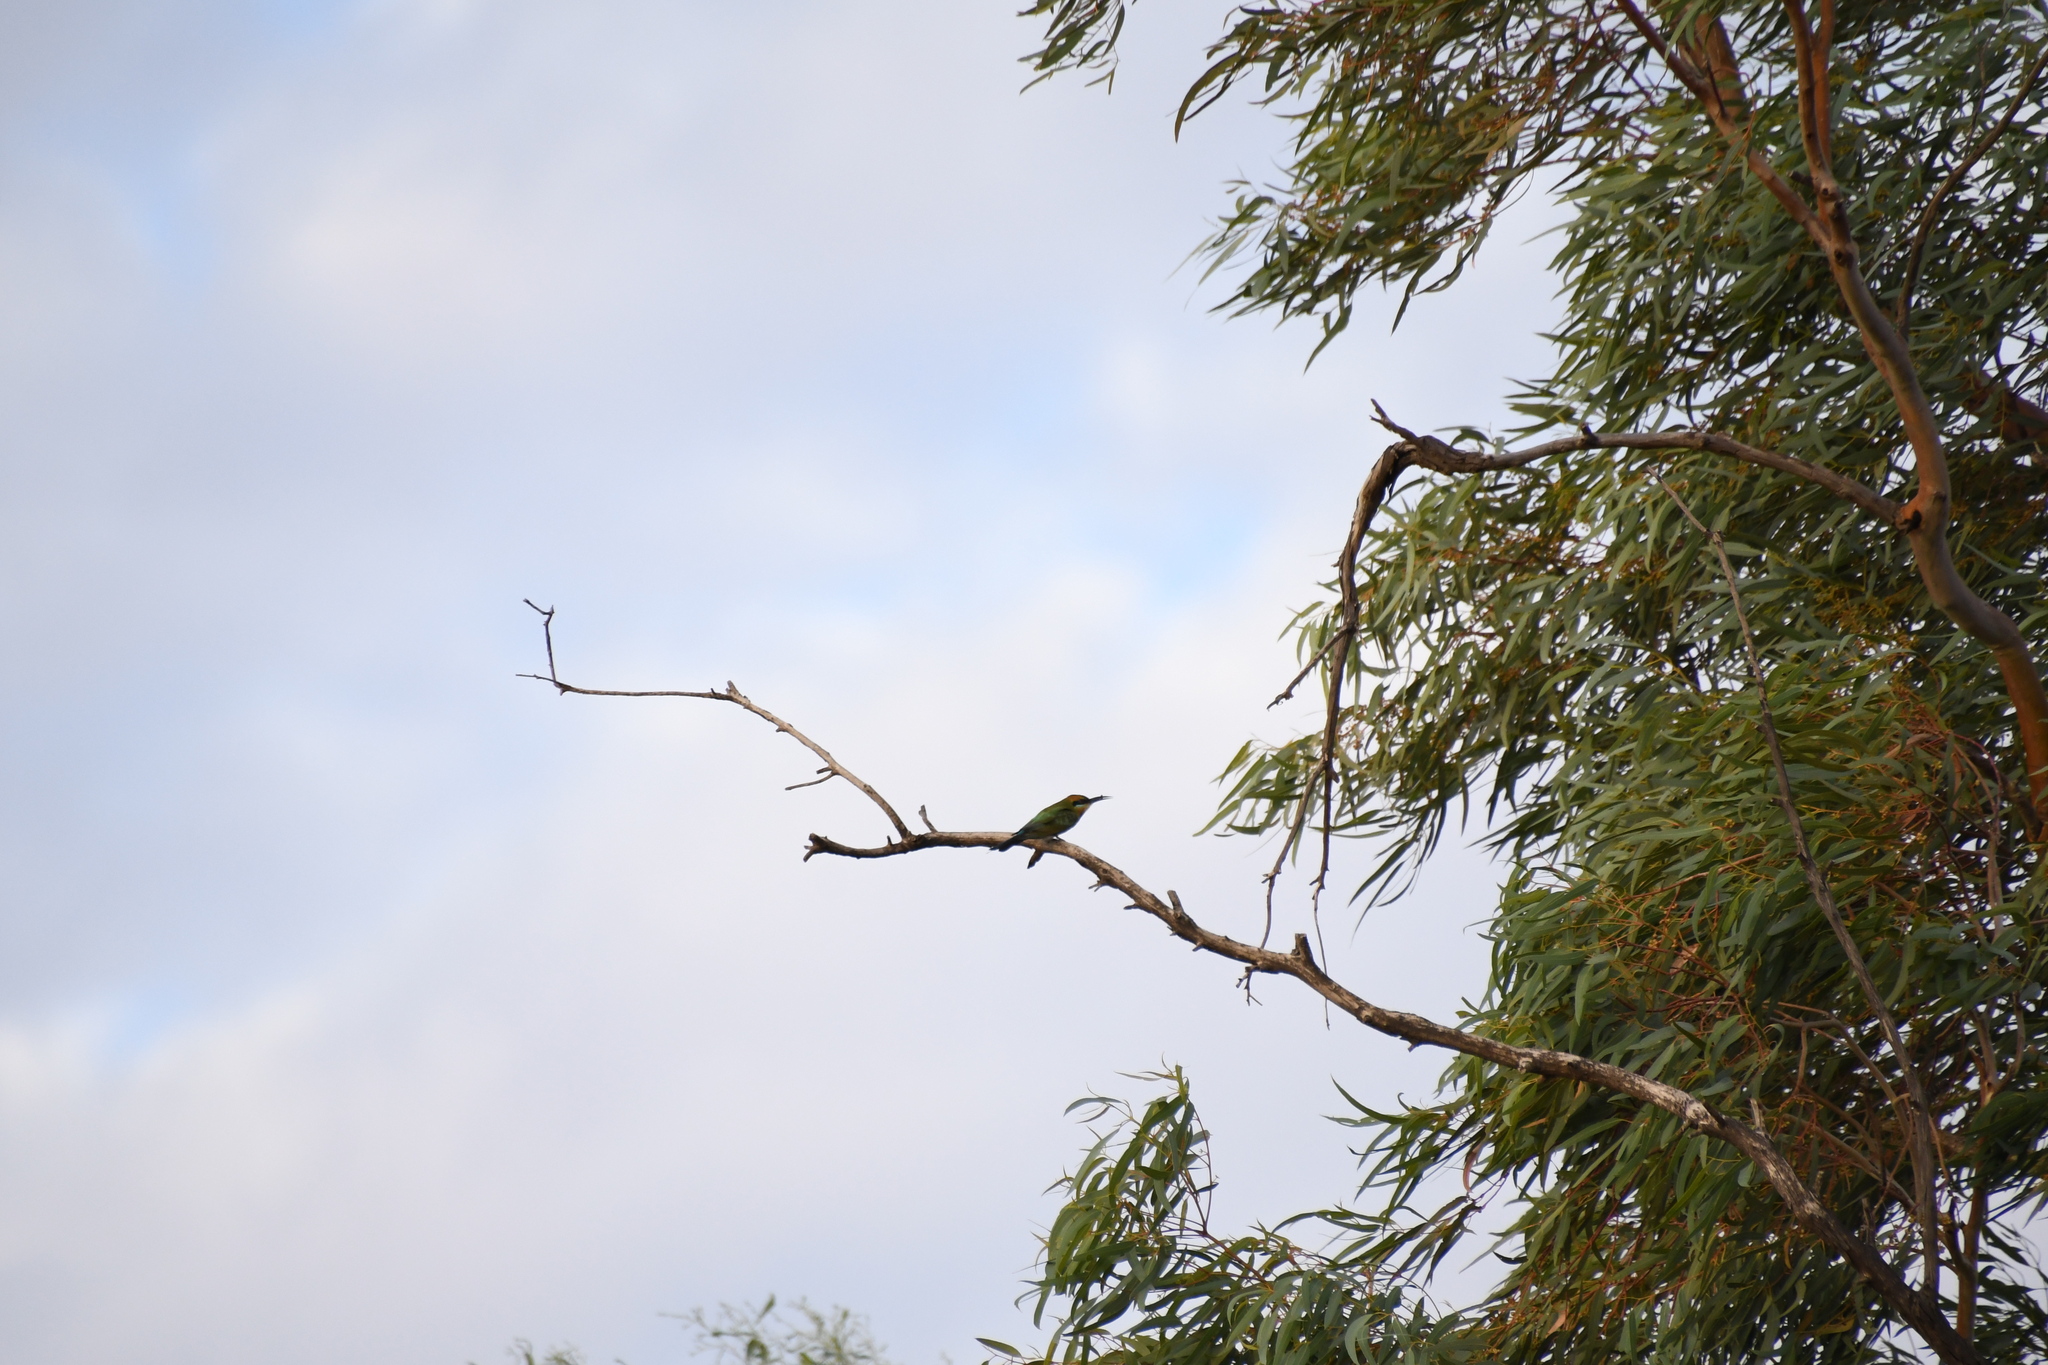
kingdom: Animalia
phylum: Chordata
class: Aves
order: Coraciiformes
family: Meropidae
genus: Merops
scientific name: Merops ornatus
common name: Rainbow bee-eater
